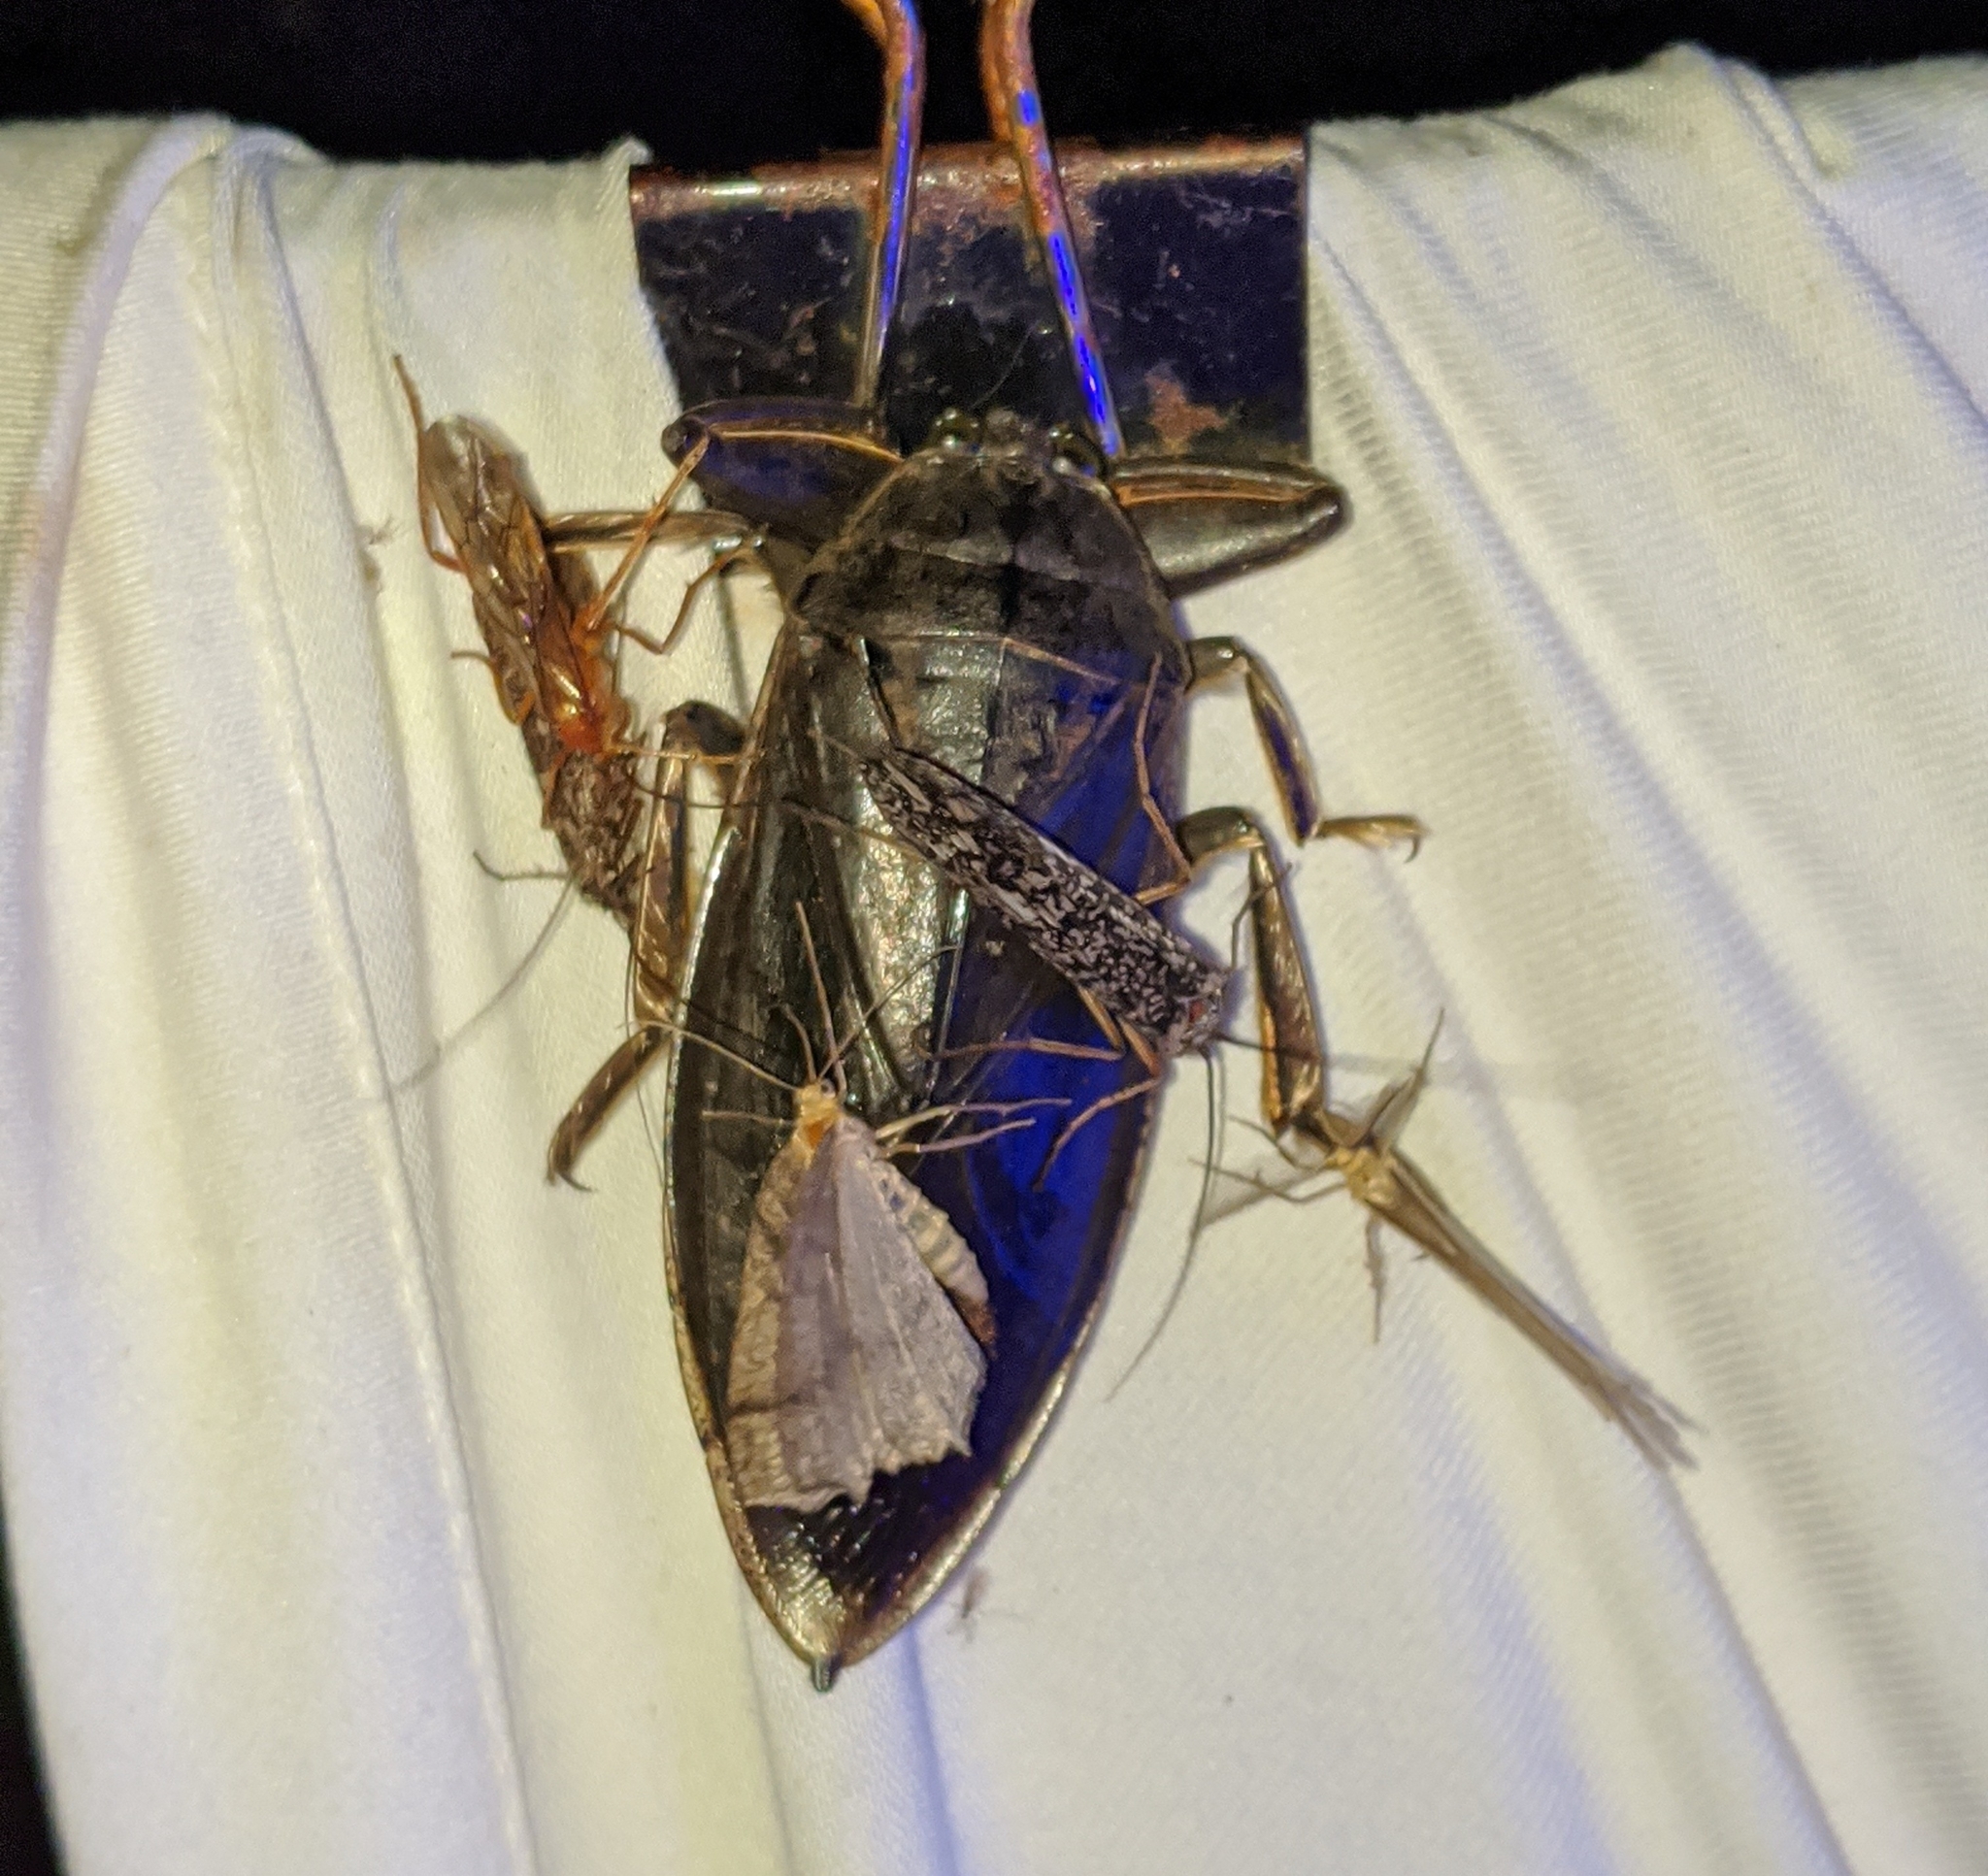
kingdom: Animalia
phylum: Arthropoda
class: Insecta
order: Hemiptera
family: Belostomatidae
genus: Lethocerus
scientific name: Lethocerus americanus
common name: Giant water bug
